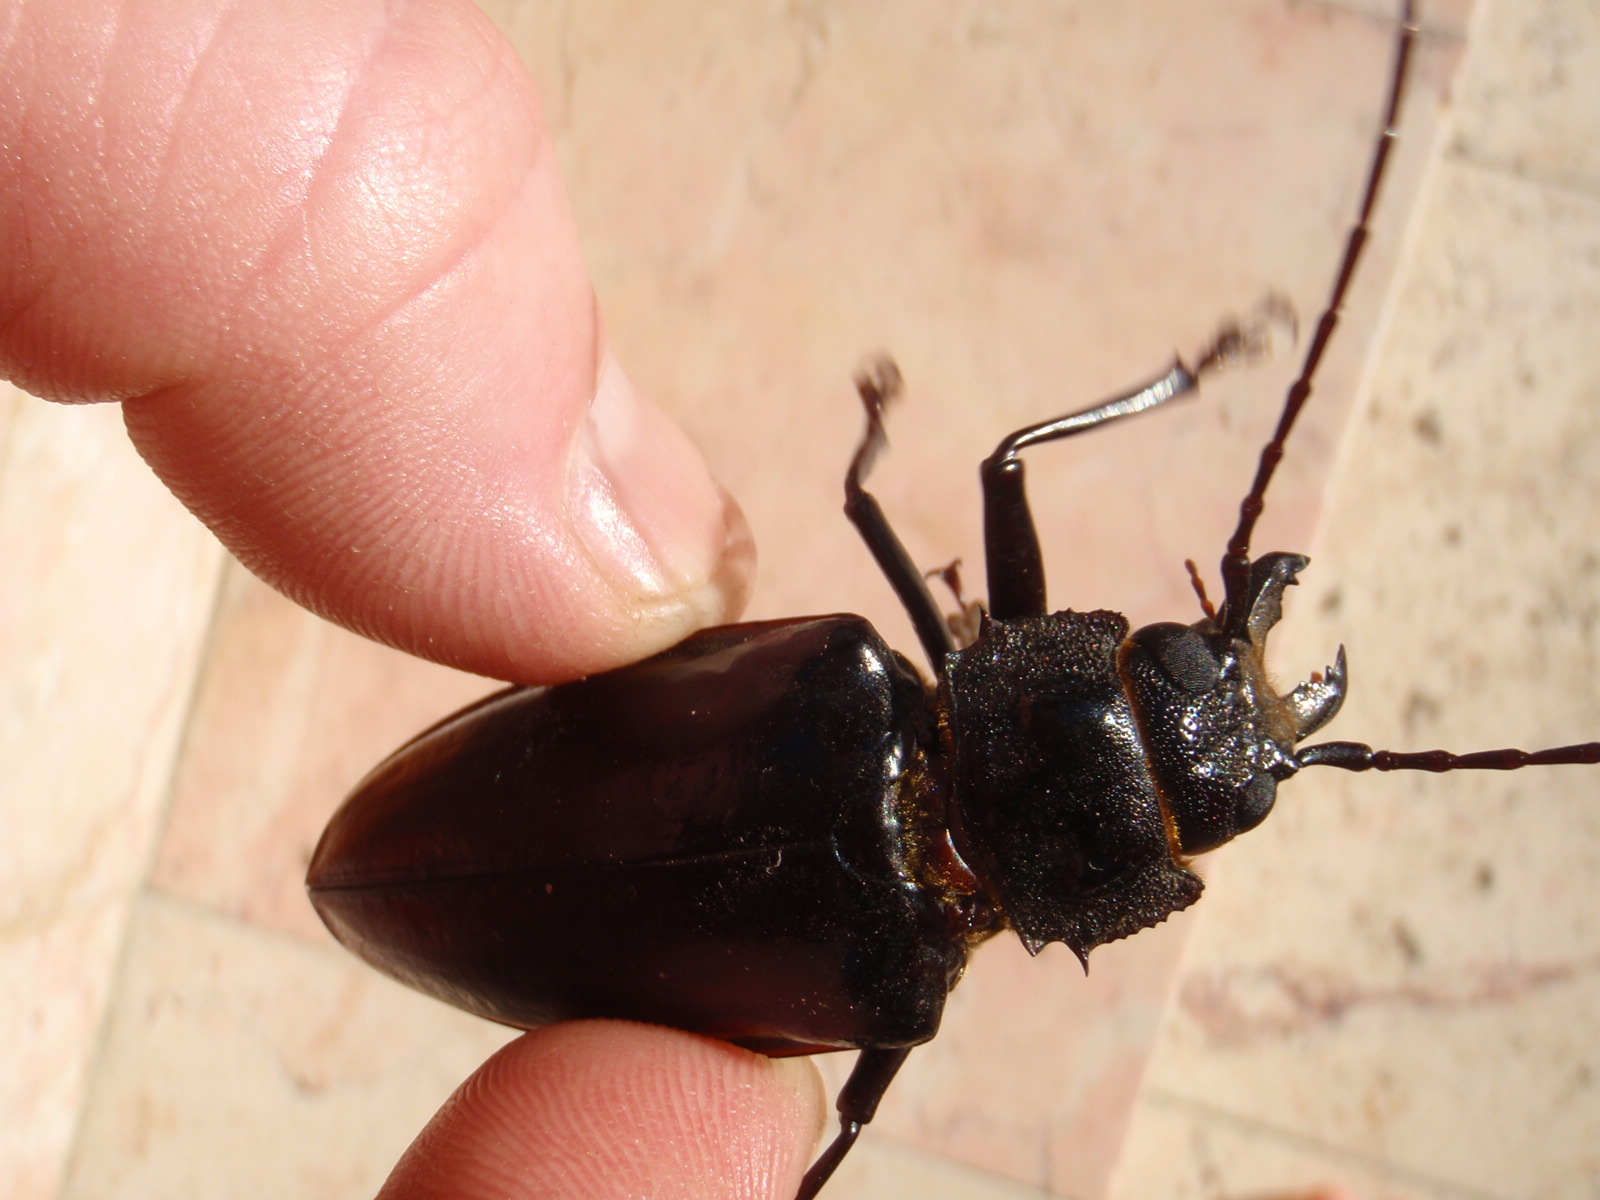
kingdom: Animalia
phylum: Arthropoda
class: Insecta
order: Coleoptera
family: Cerambycidae
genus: Stenodontes
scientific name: Stenodontes chevrolati
